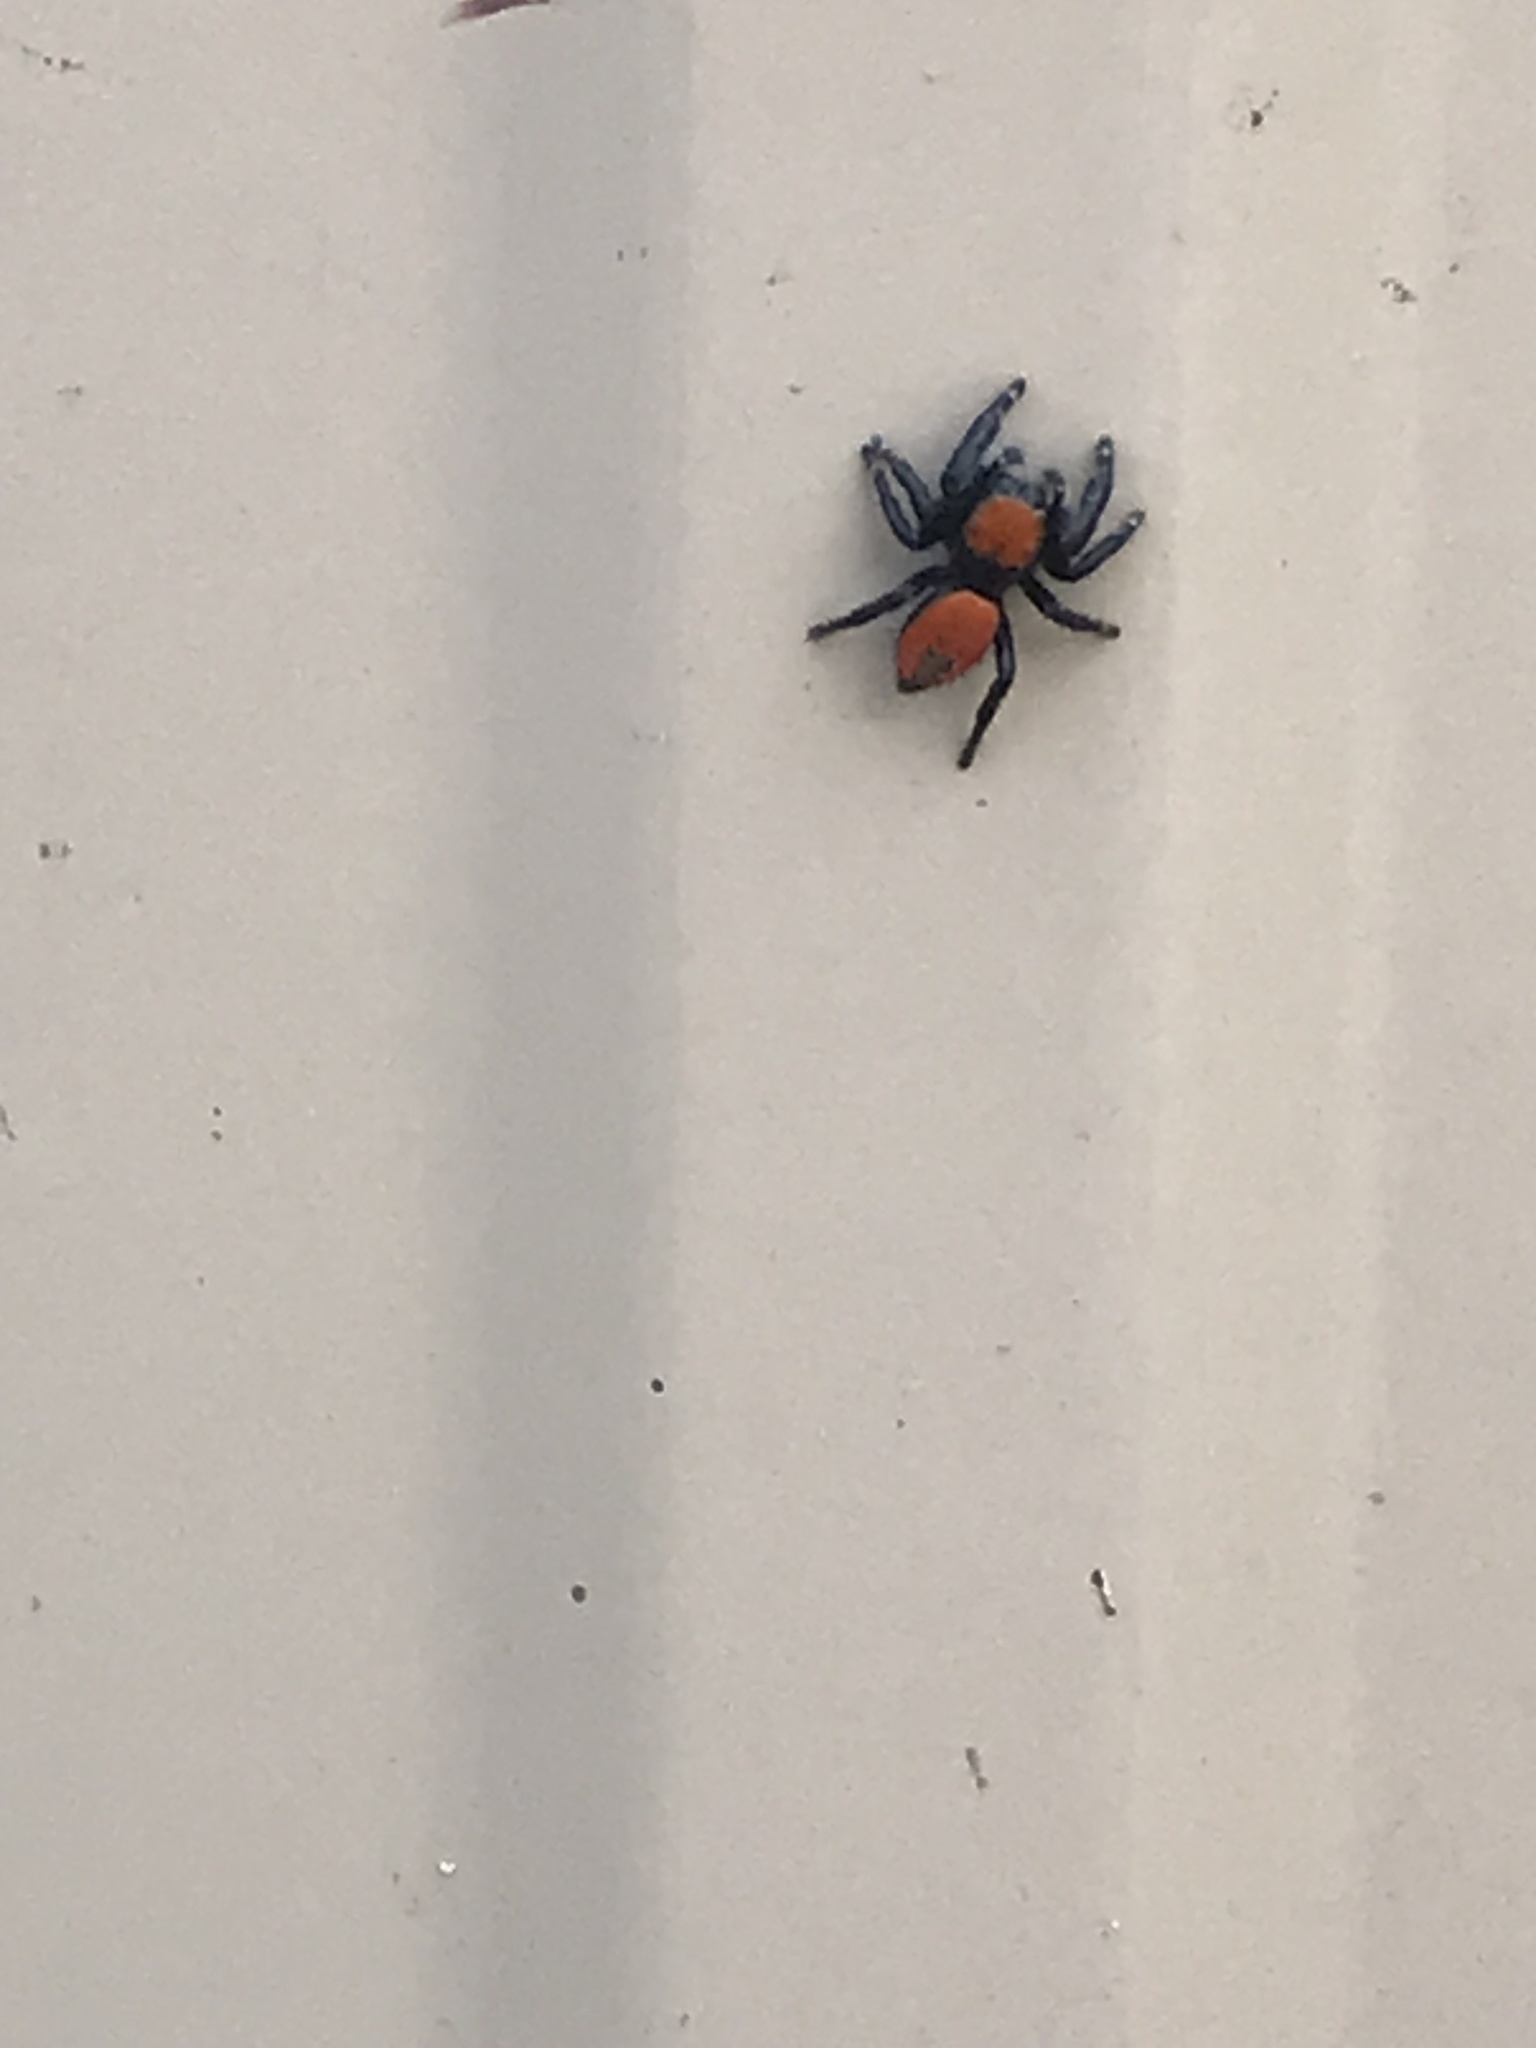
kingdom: Animalia
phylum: Arthropoda
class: Arachnida
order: Araneae
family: Salticidae
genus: Phidippus
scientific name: Phidippus apacheanus
